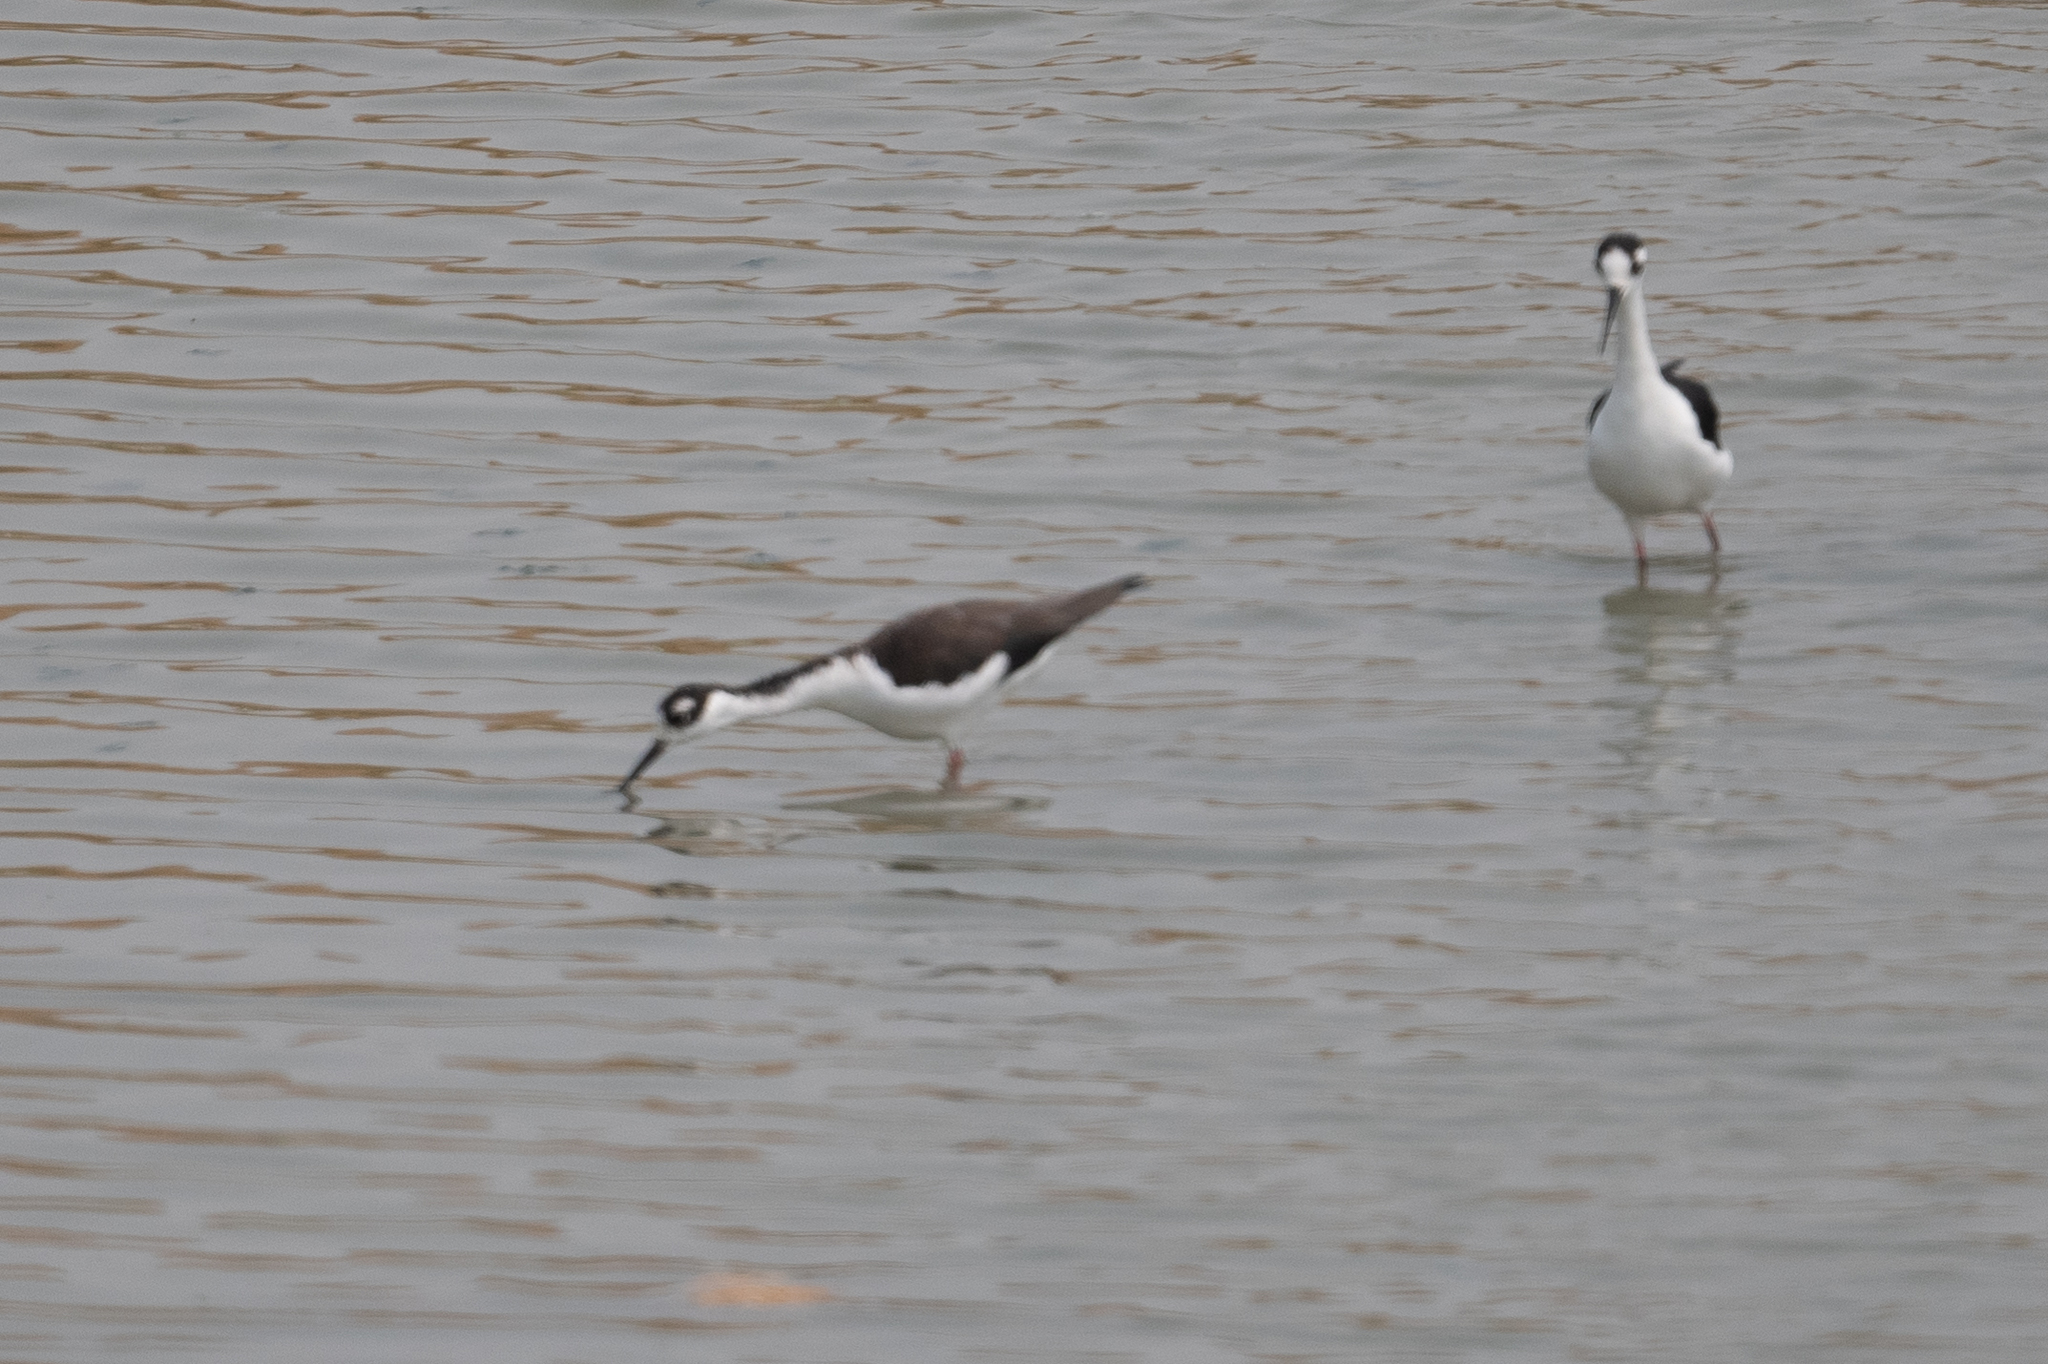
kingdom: Animalia
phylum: Chordata
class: Aves
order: Charadriiformes
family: Recurvirostridae
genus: Himantopus
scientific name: Himantopus mexicanus
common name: Black-necked stilt
